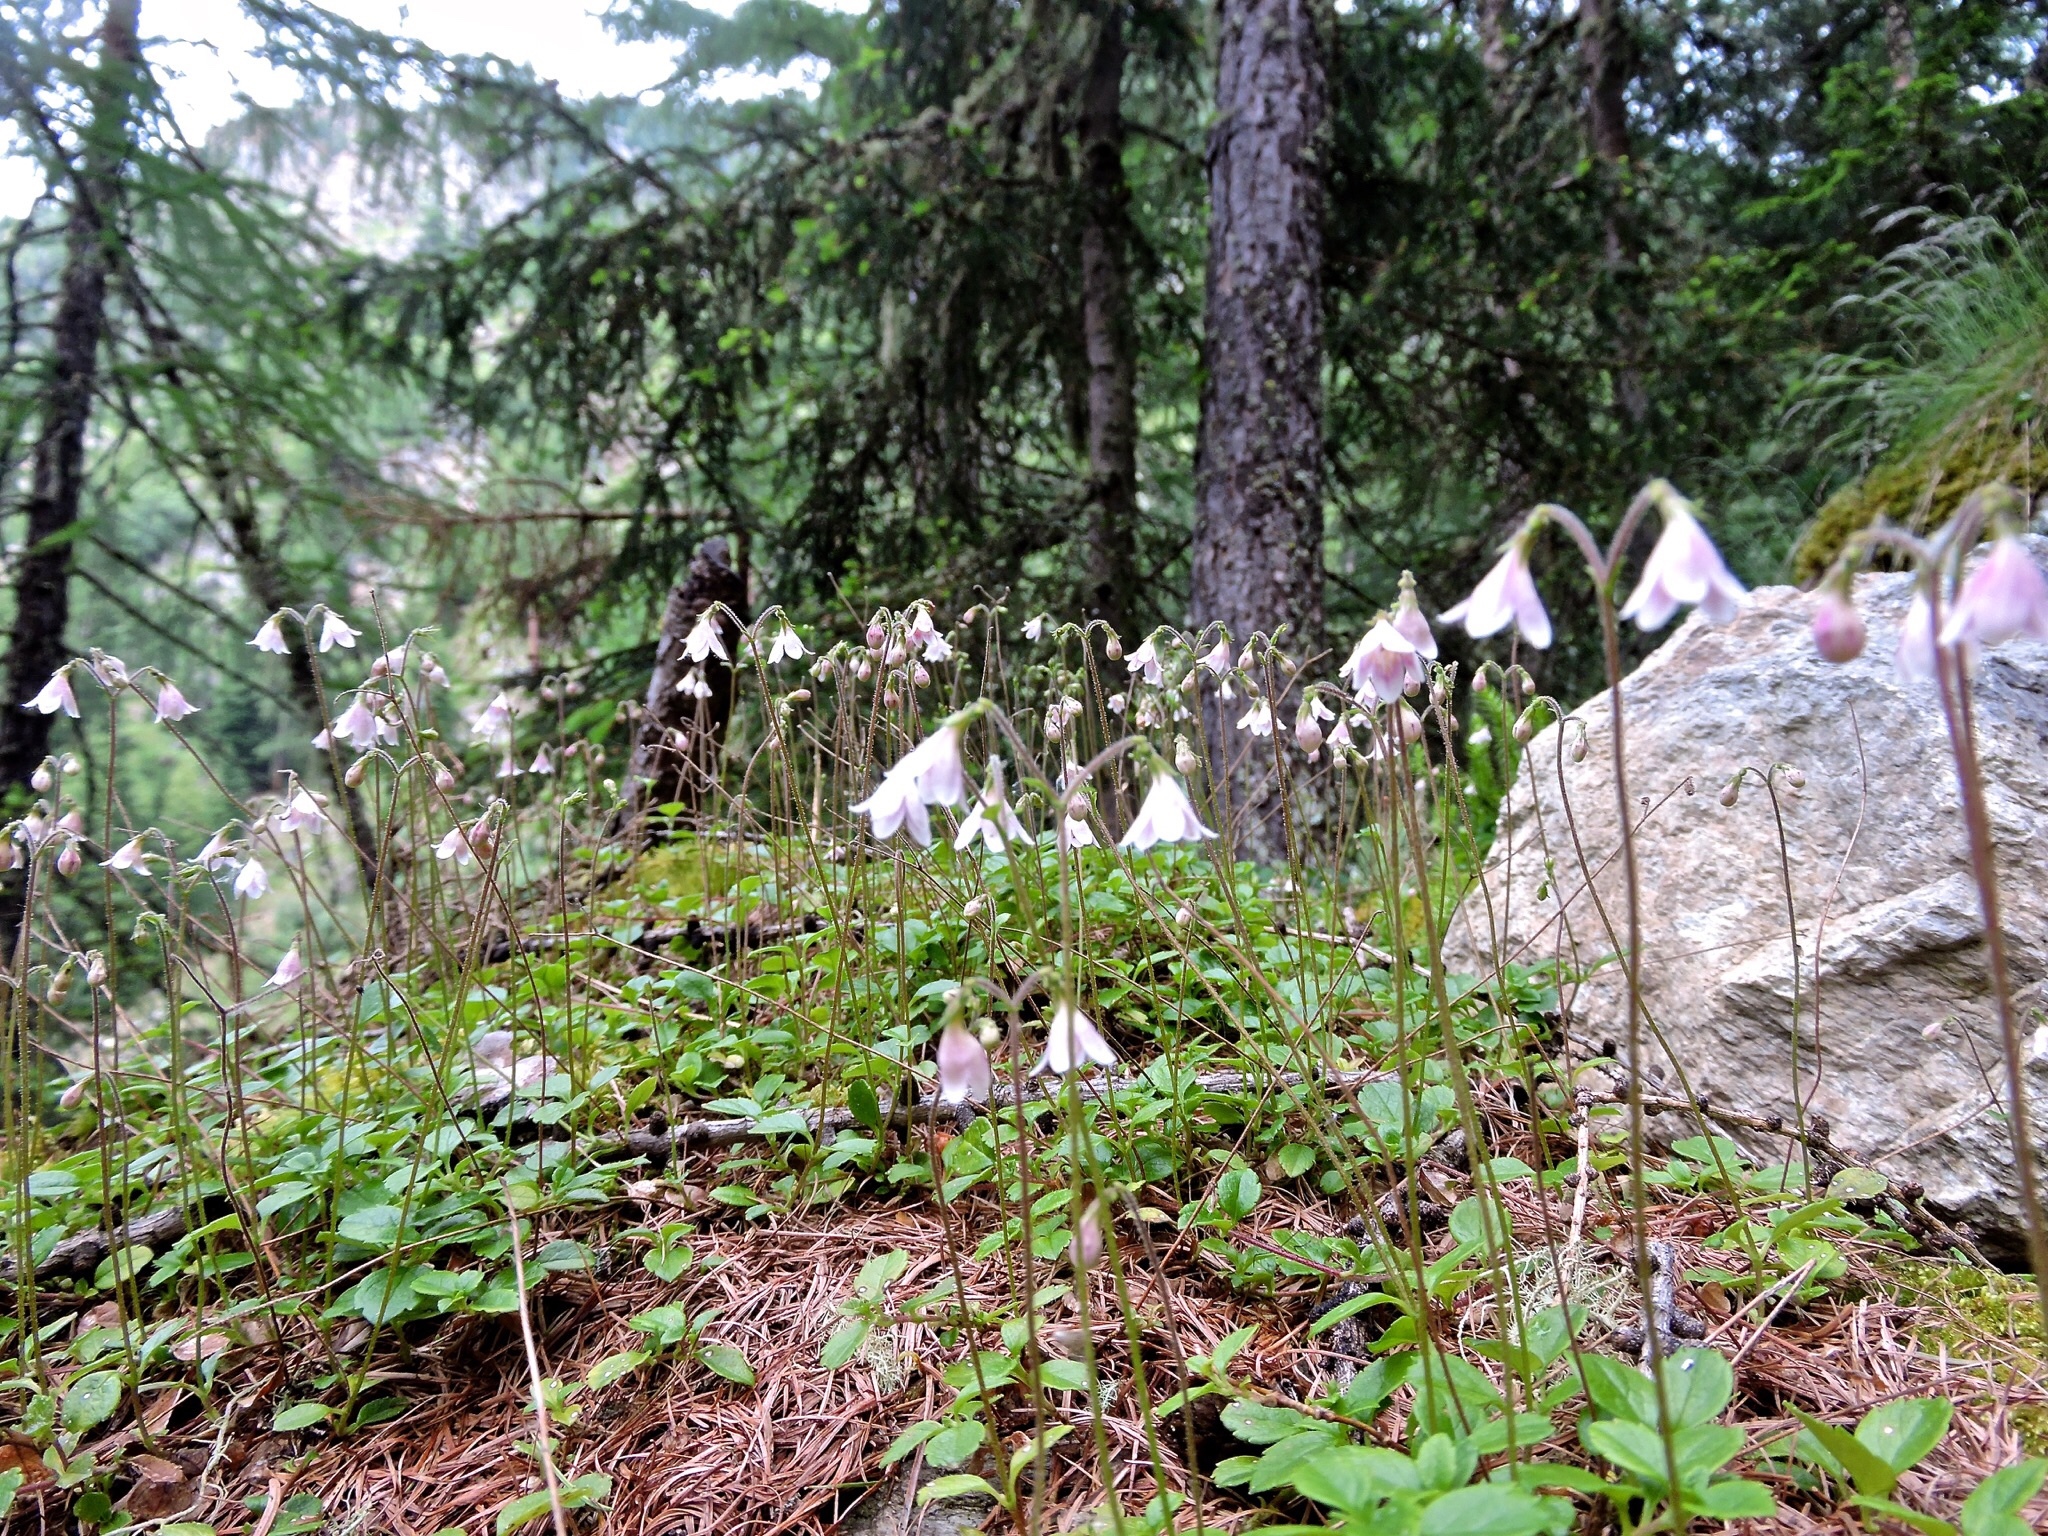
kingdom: Plantae
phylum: Tracheophyta
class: Magnoliopsida
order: Dipsacales
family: Caprifoliaceae
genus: Linnaea
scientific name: Linnaea borealis
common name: Twinflower
